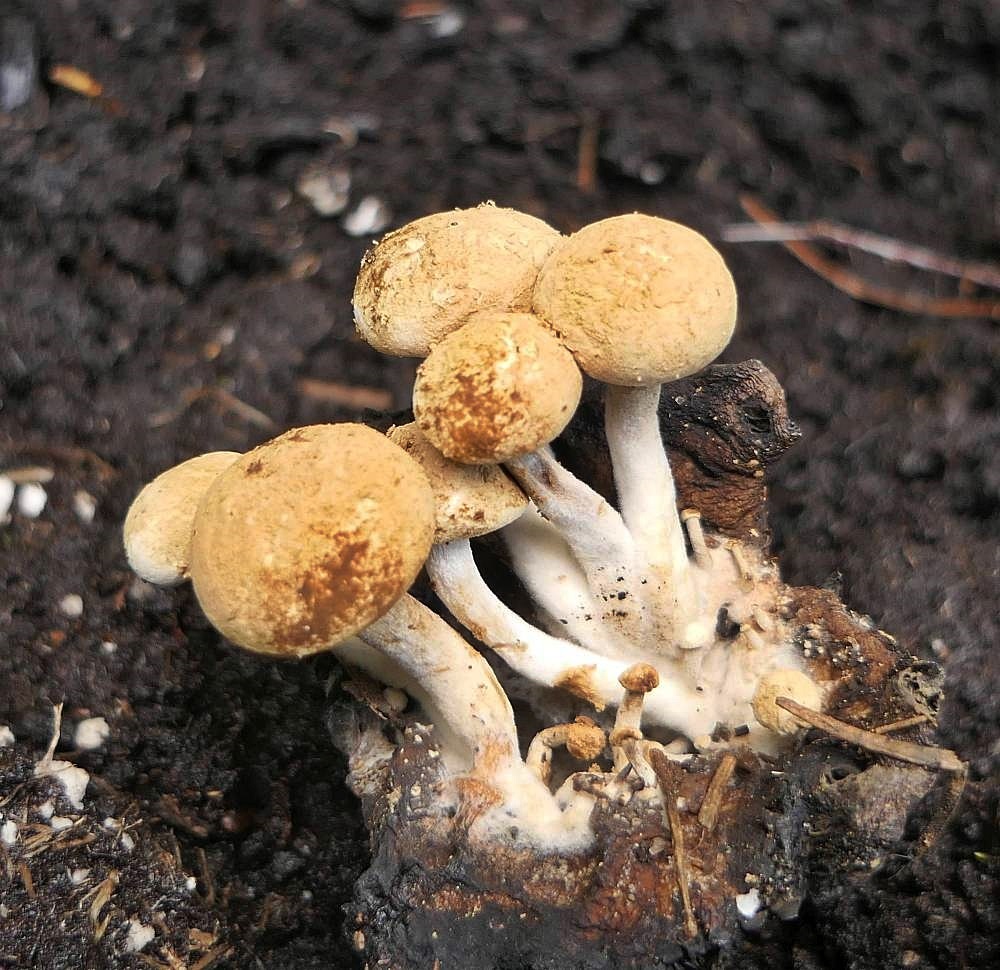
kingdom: Fungi
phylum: Basidiomycota
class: Agaricomycetes
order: Agaricales
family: Lyophyllaceae
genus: Asterophora
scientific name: Asterophora lycoperdoides
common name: Pick-a-back toadstool
